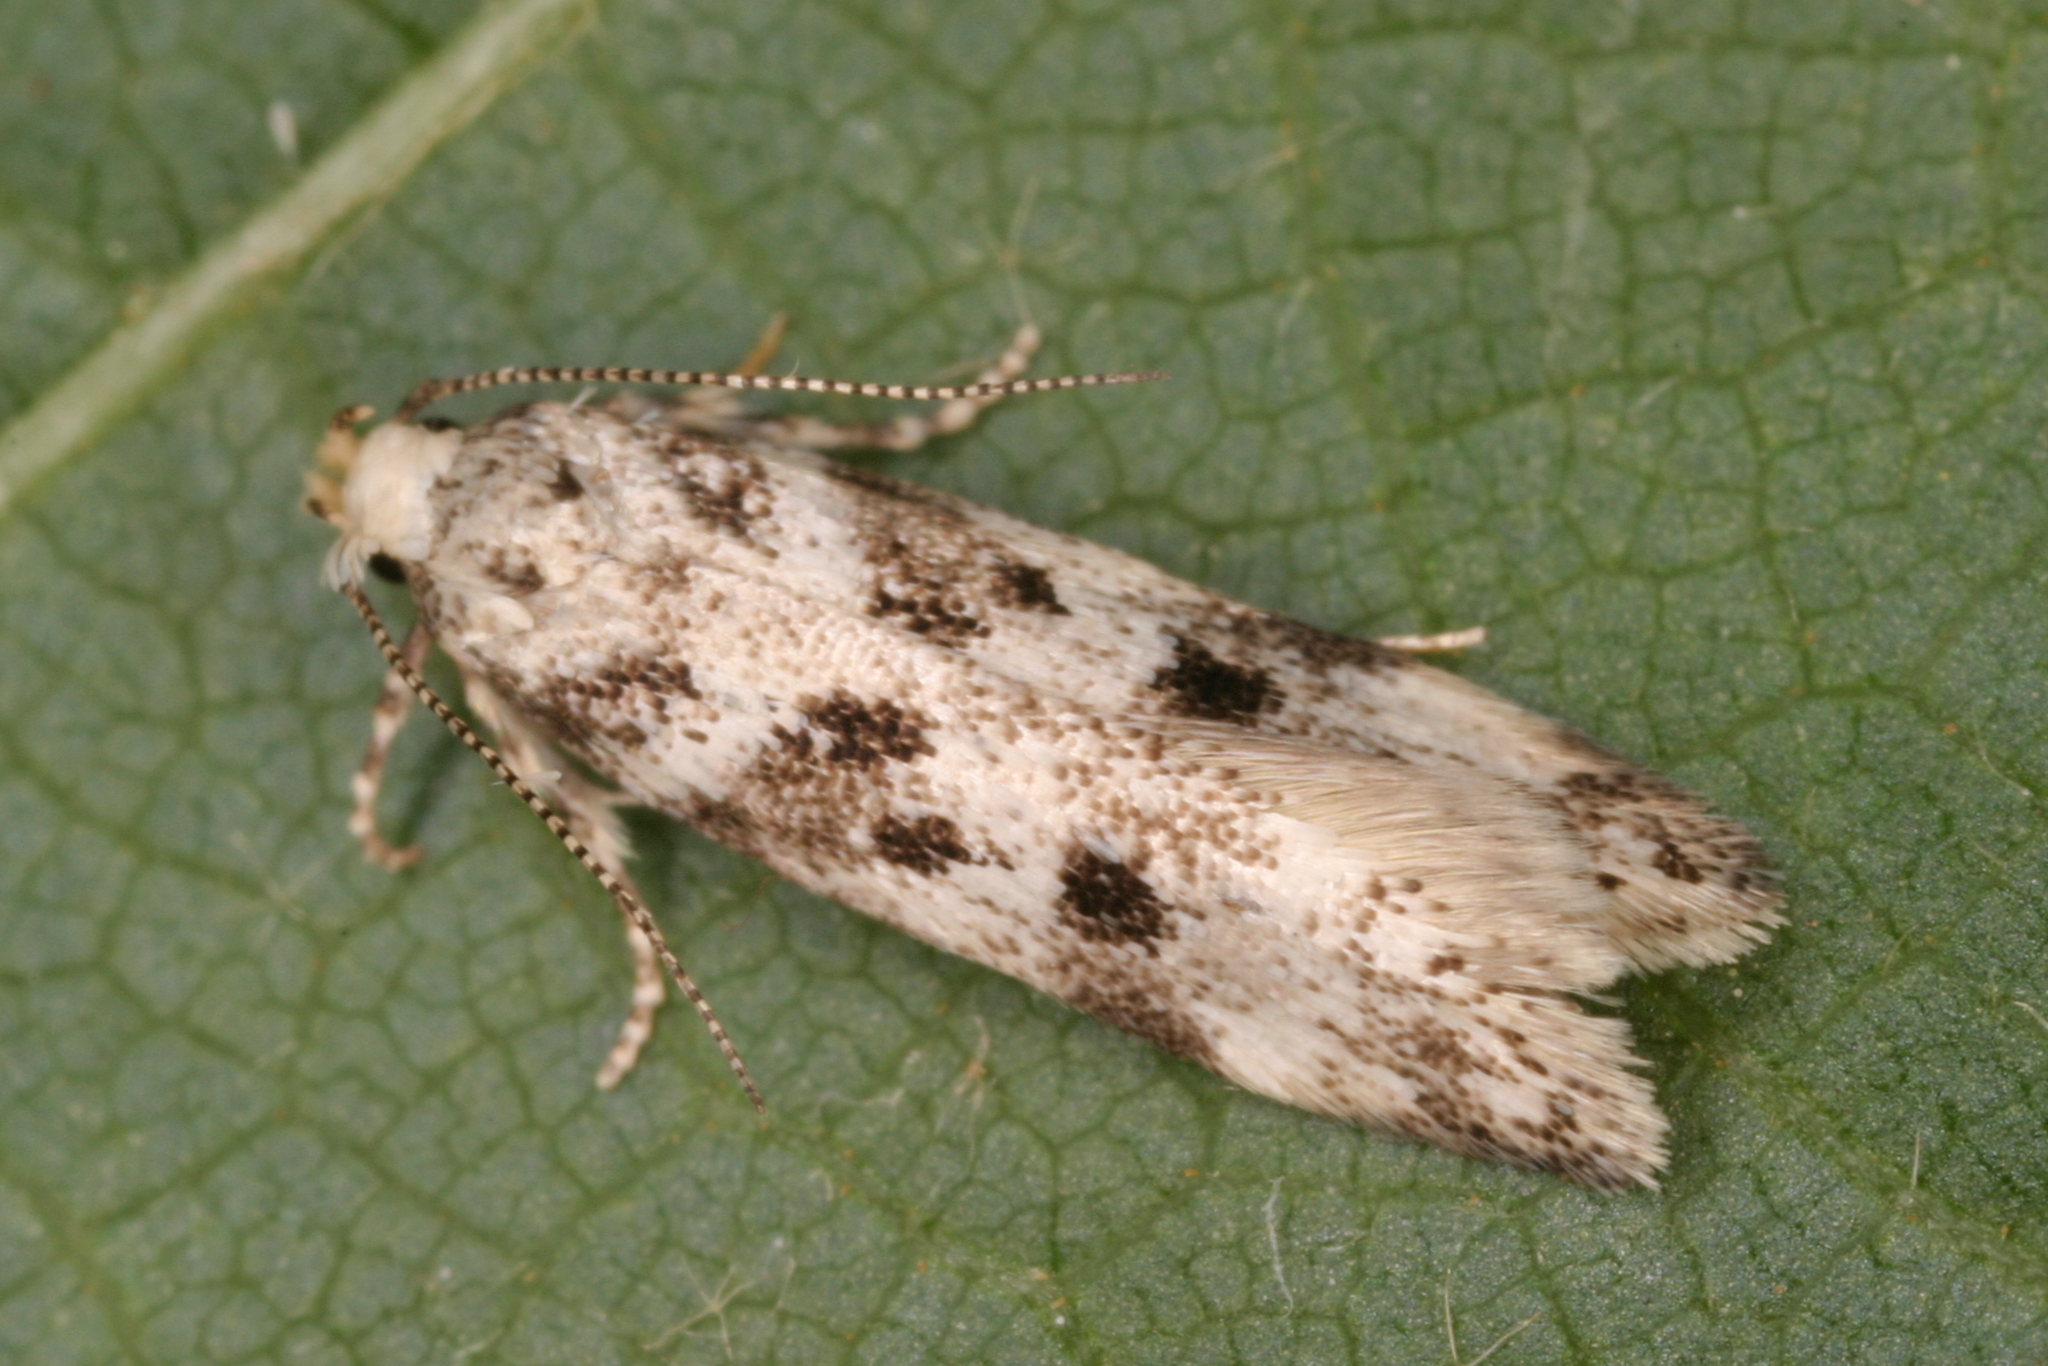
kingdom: Animalia
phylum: Arthropoda
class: Insecta
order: Lepidoptera
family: Gelechiidae
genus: Chionodes
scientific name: Chionodes electella
